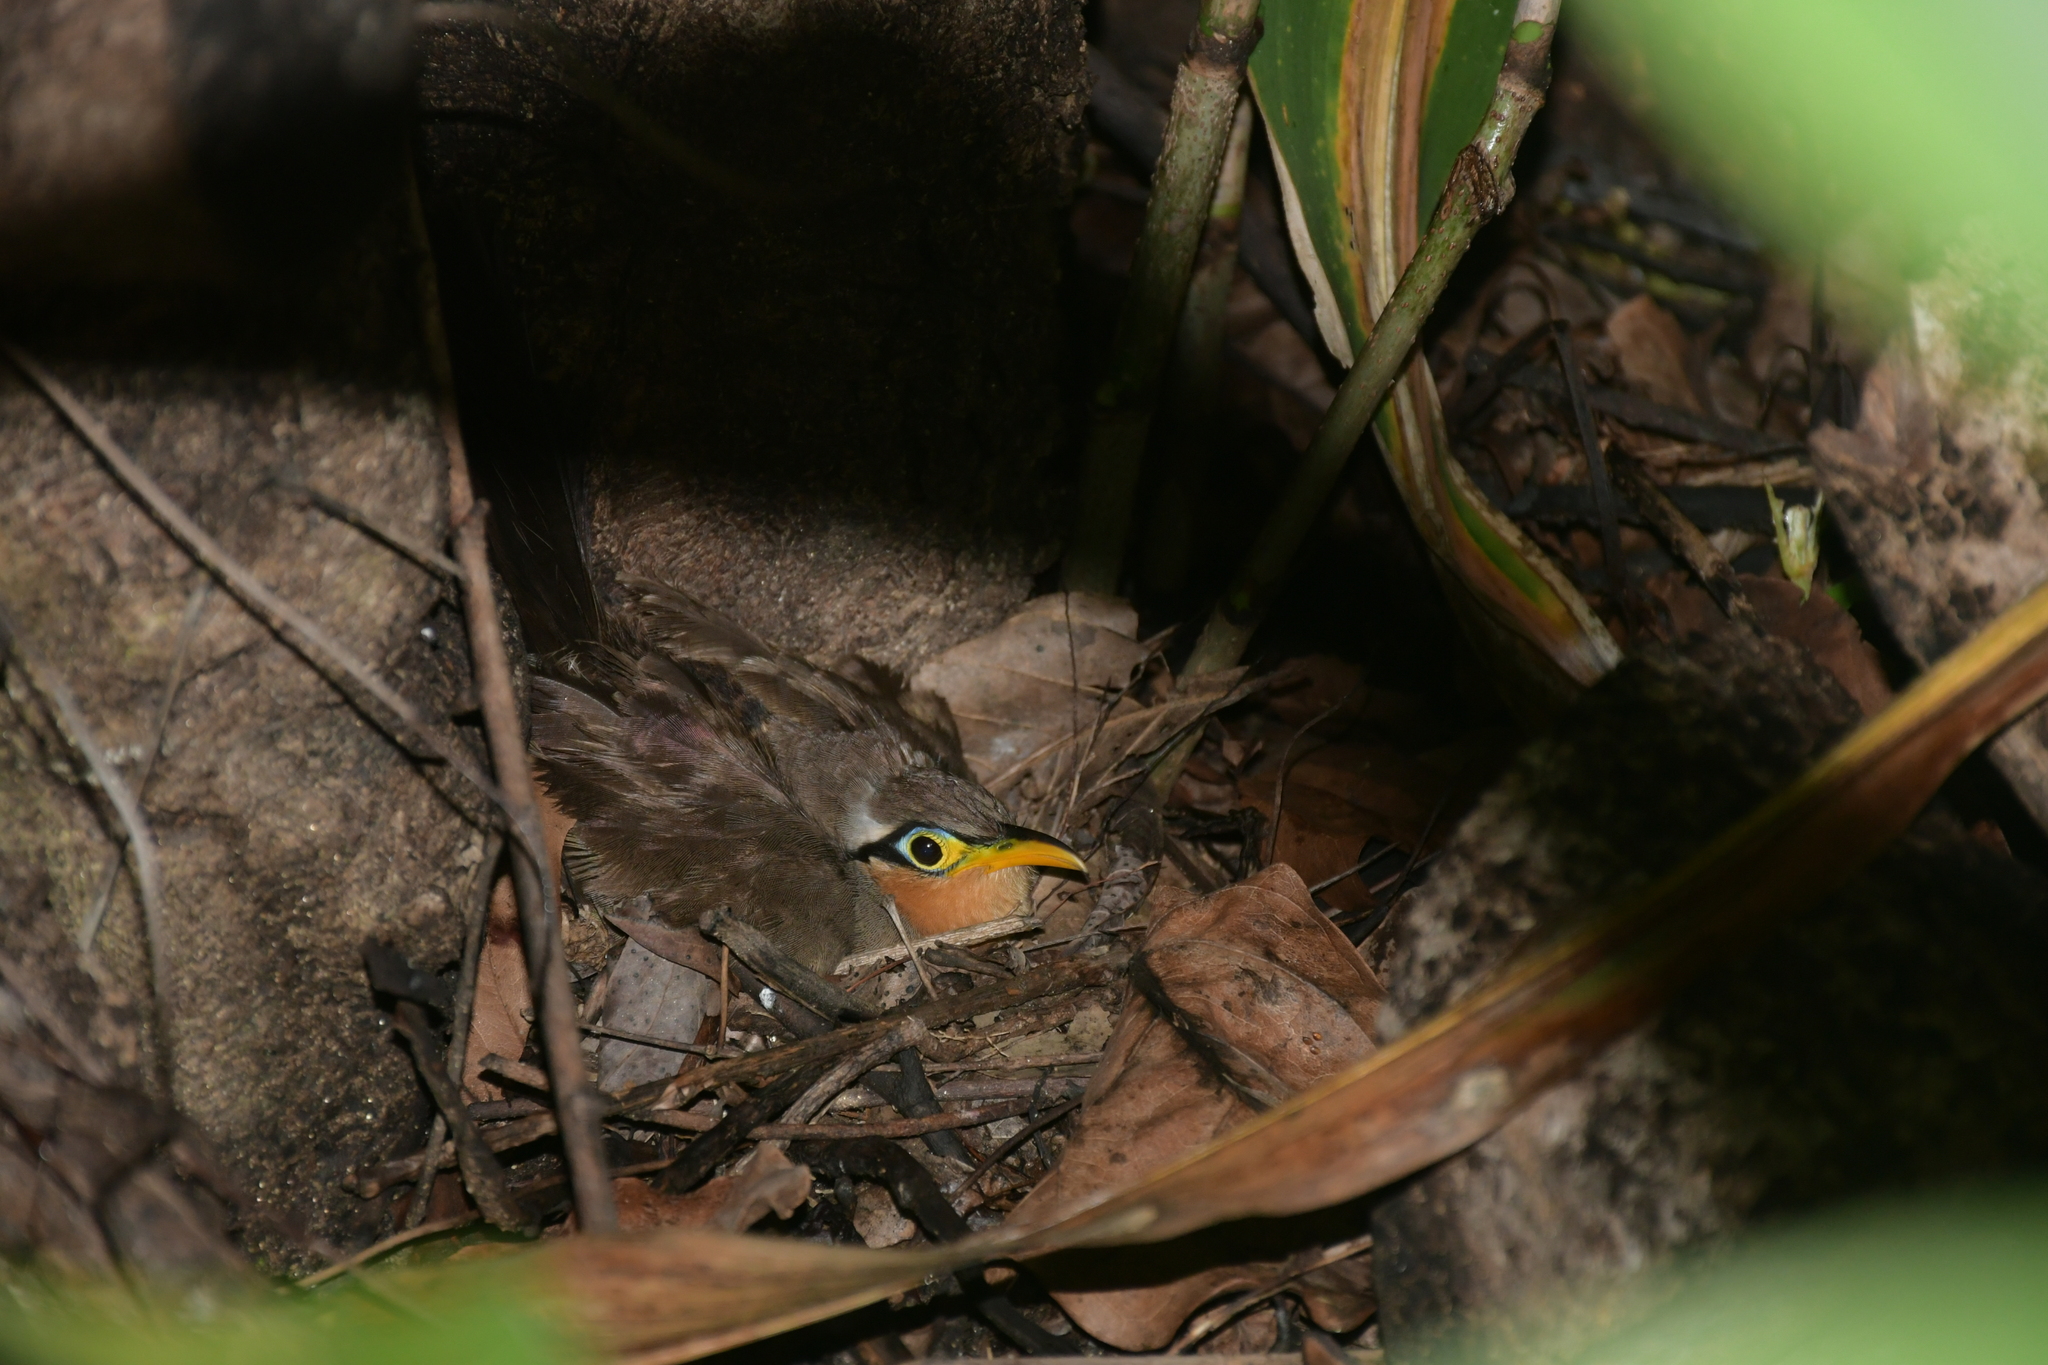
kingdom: Animalia
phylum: Chordata
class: Aves
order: Cuculiformes
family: Cuculidae
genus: Morococcyx
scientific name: Morococcyx erythropygus
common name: Lesser ground-cuckoo
